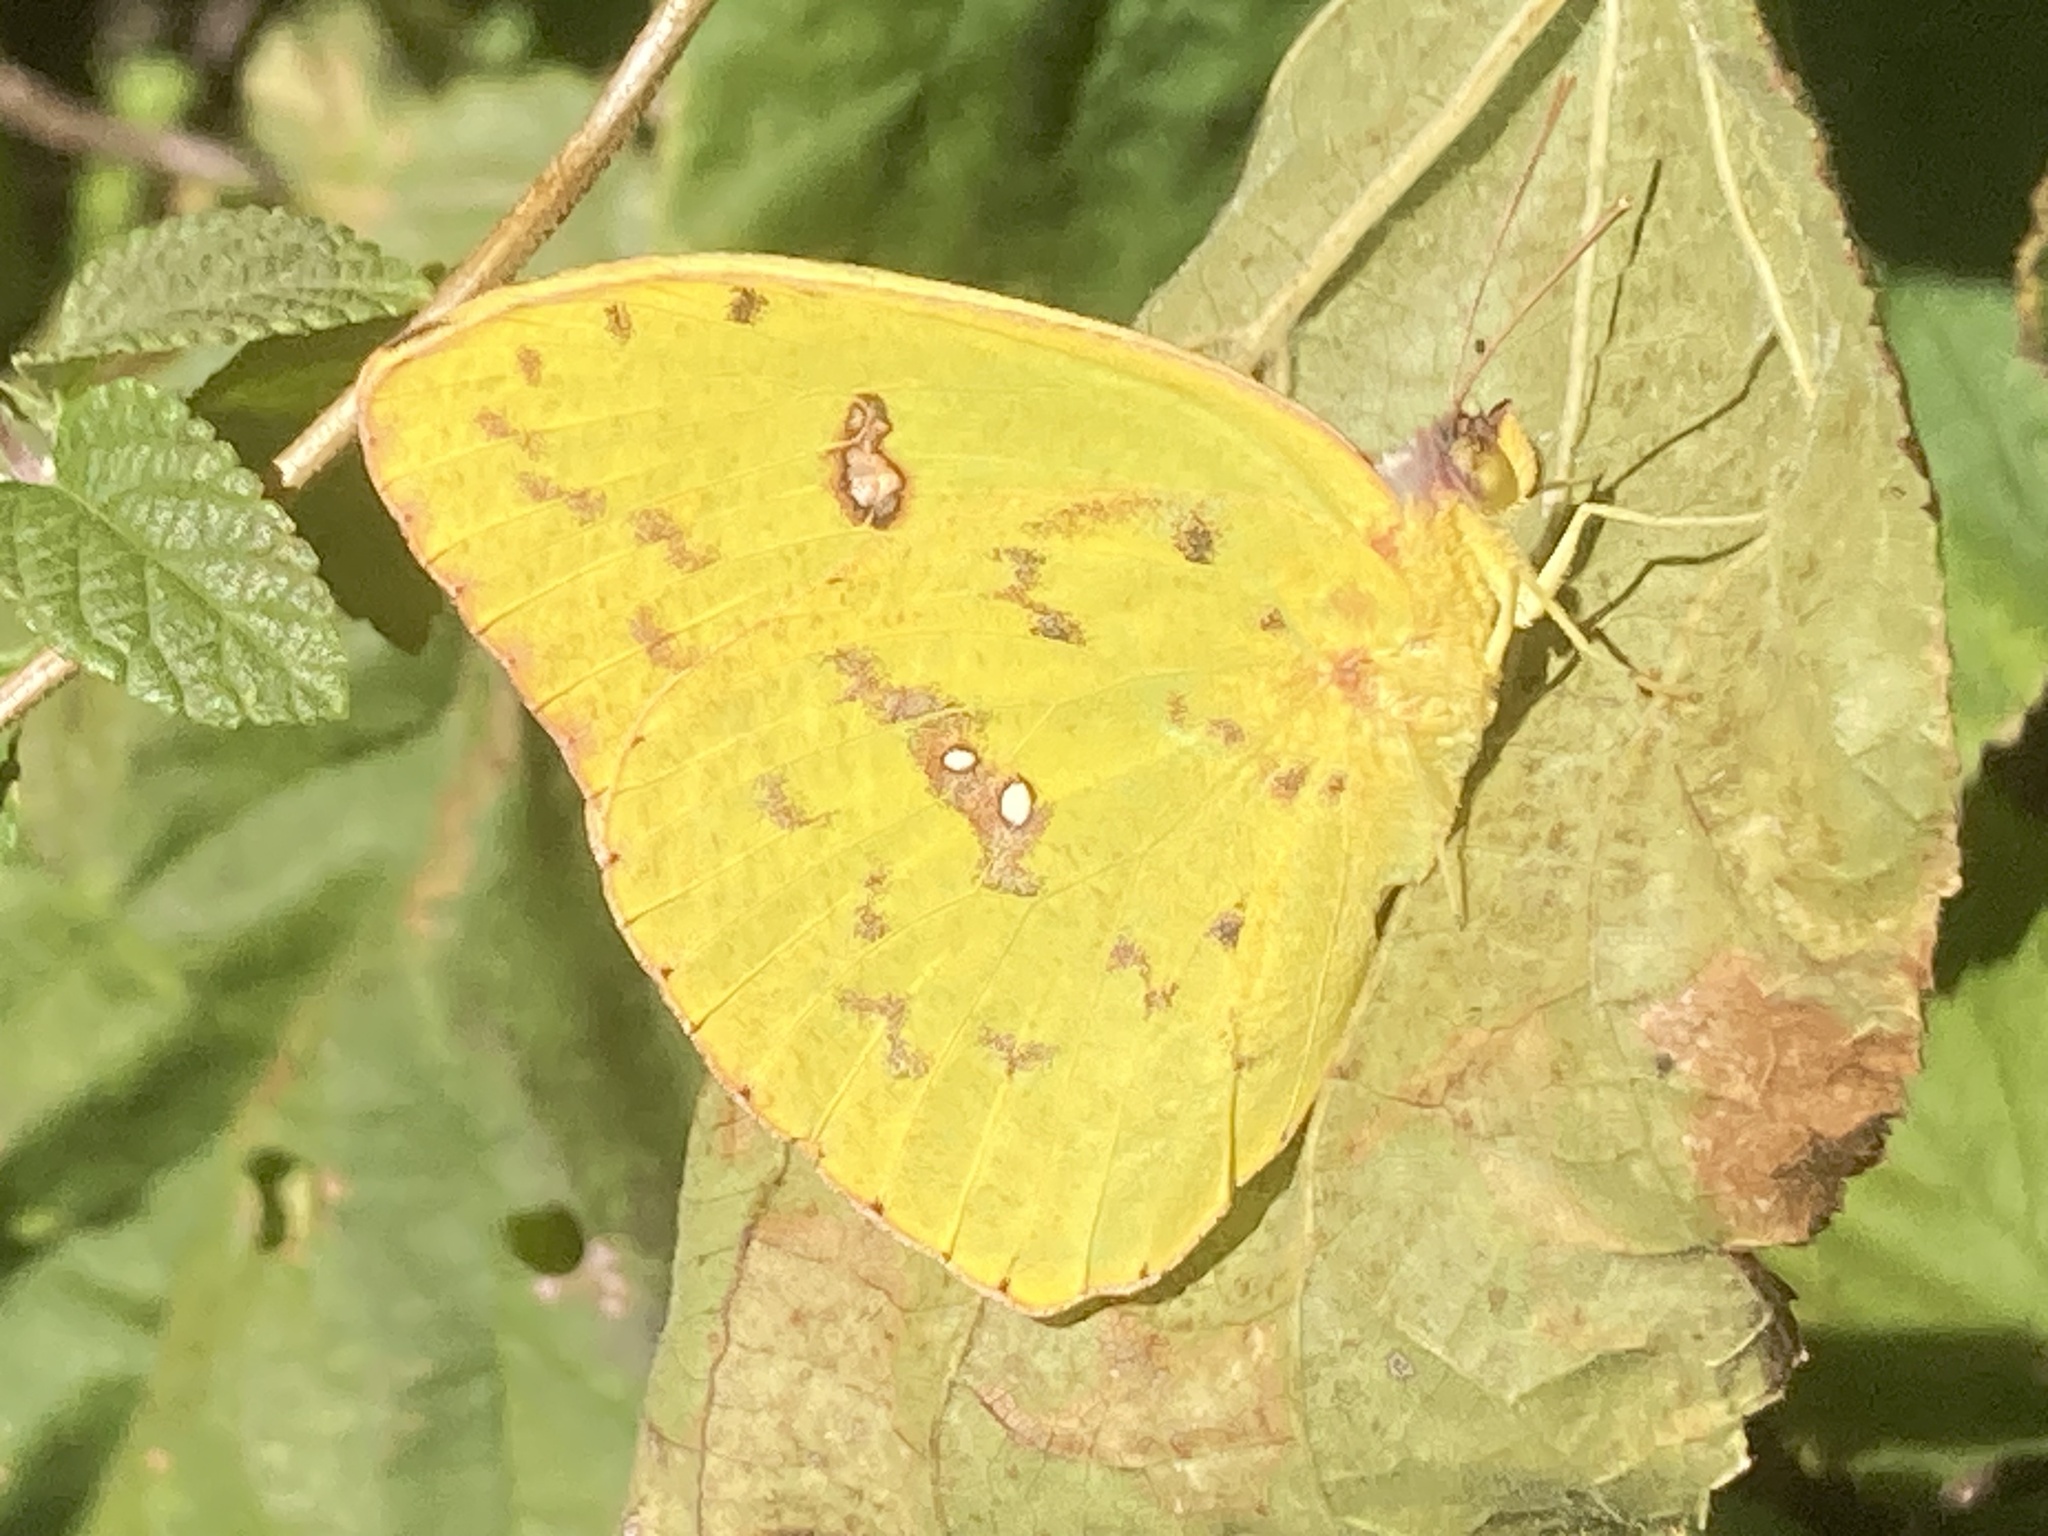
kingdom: Animalia
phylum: Arthropoda
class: Insecta
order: Lepidoptera
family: Pieridae
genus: Phoebis
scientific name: Phoebis sennae
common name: Cloudless sulphur
